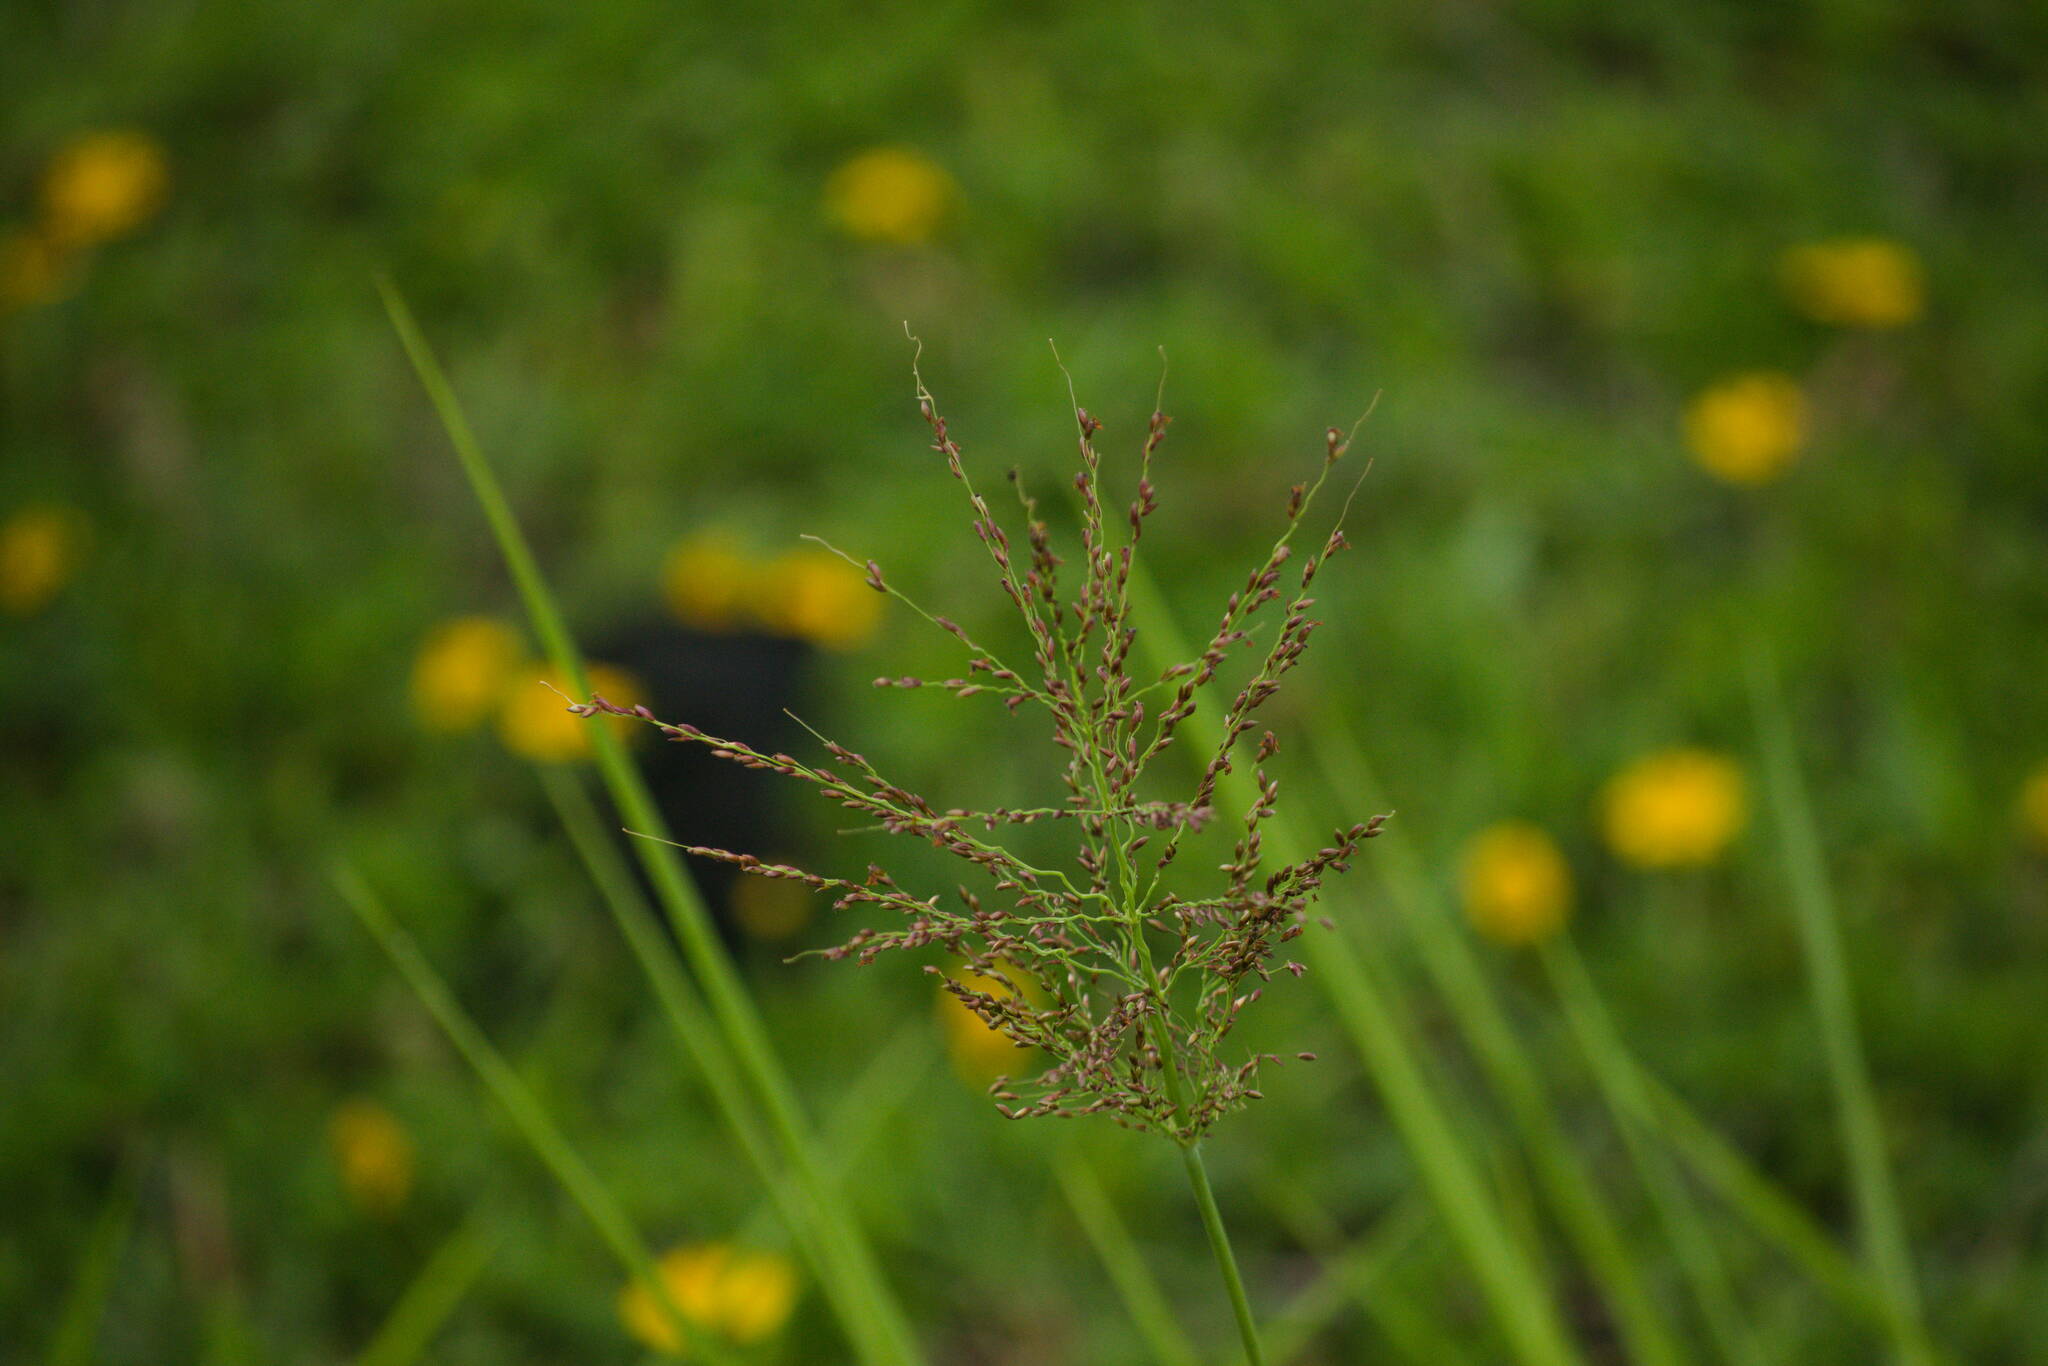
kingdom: Plantae
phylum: Tracheophyta
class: Liliopsida
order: Poales
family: Poaceae
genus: Megathyrsus
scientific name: Megathyrsus maximus
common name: Guineagrass
